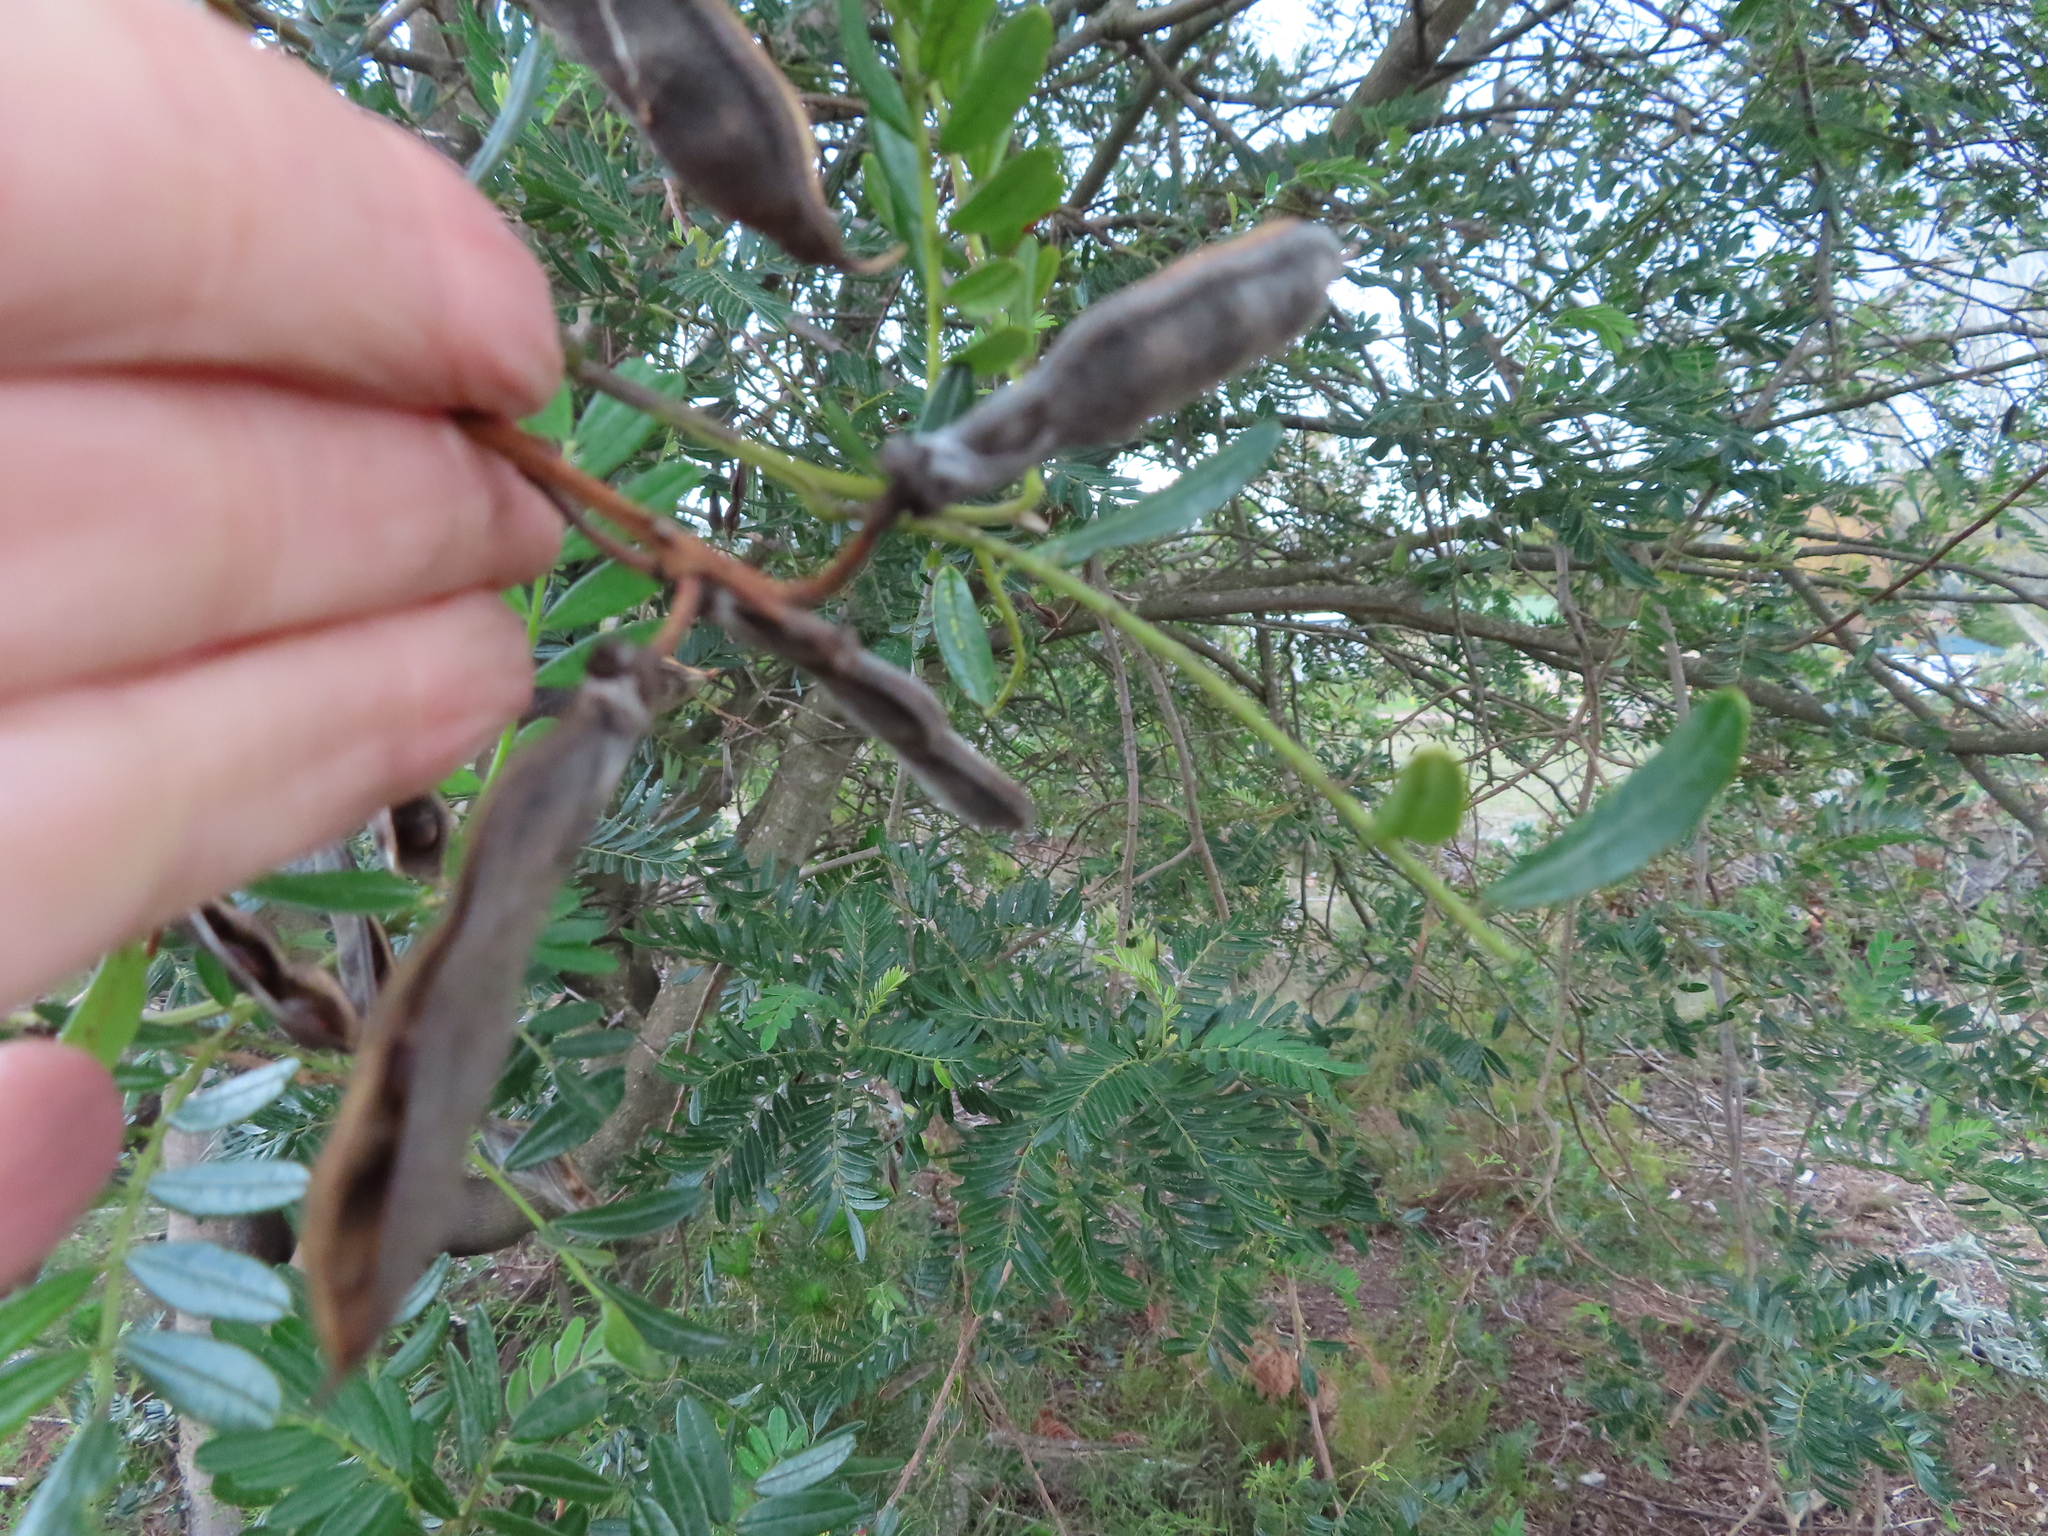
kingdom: Plantae
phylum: Tracheophyta
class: Magnoliopsida
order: Fabales
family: Fabaceae
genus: Virgilia
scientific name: Virgilia oroboides
